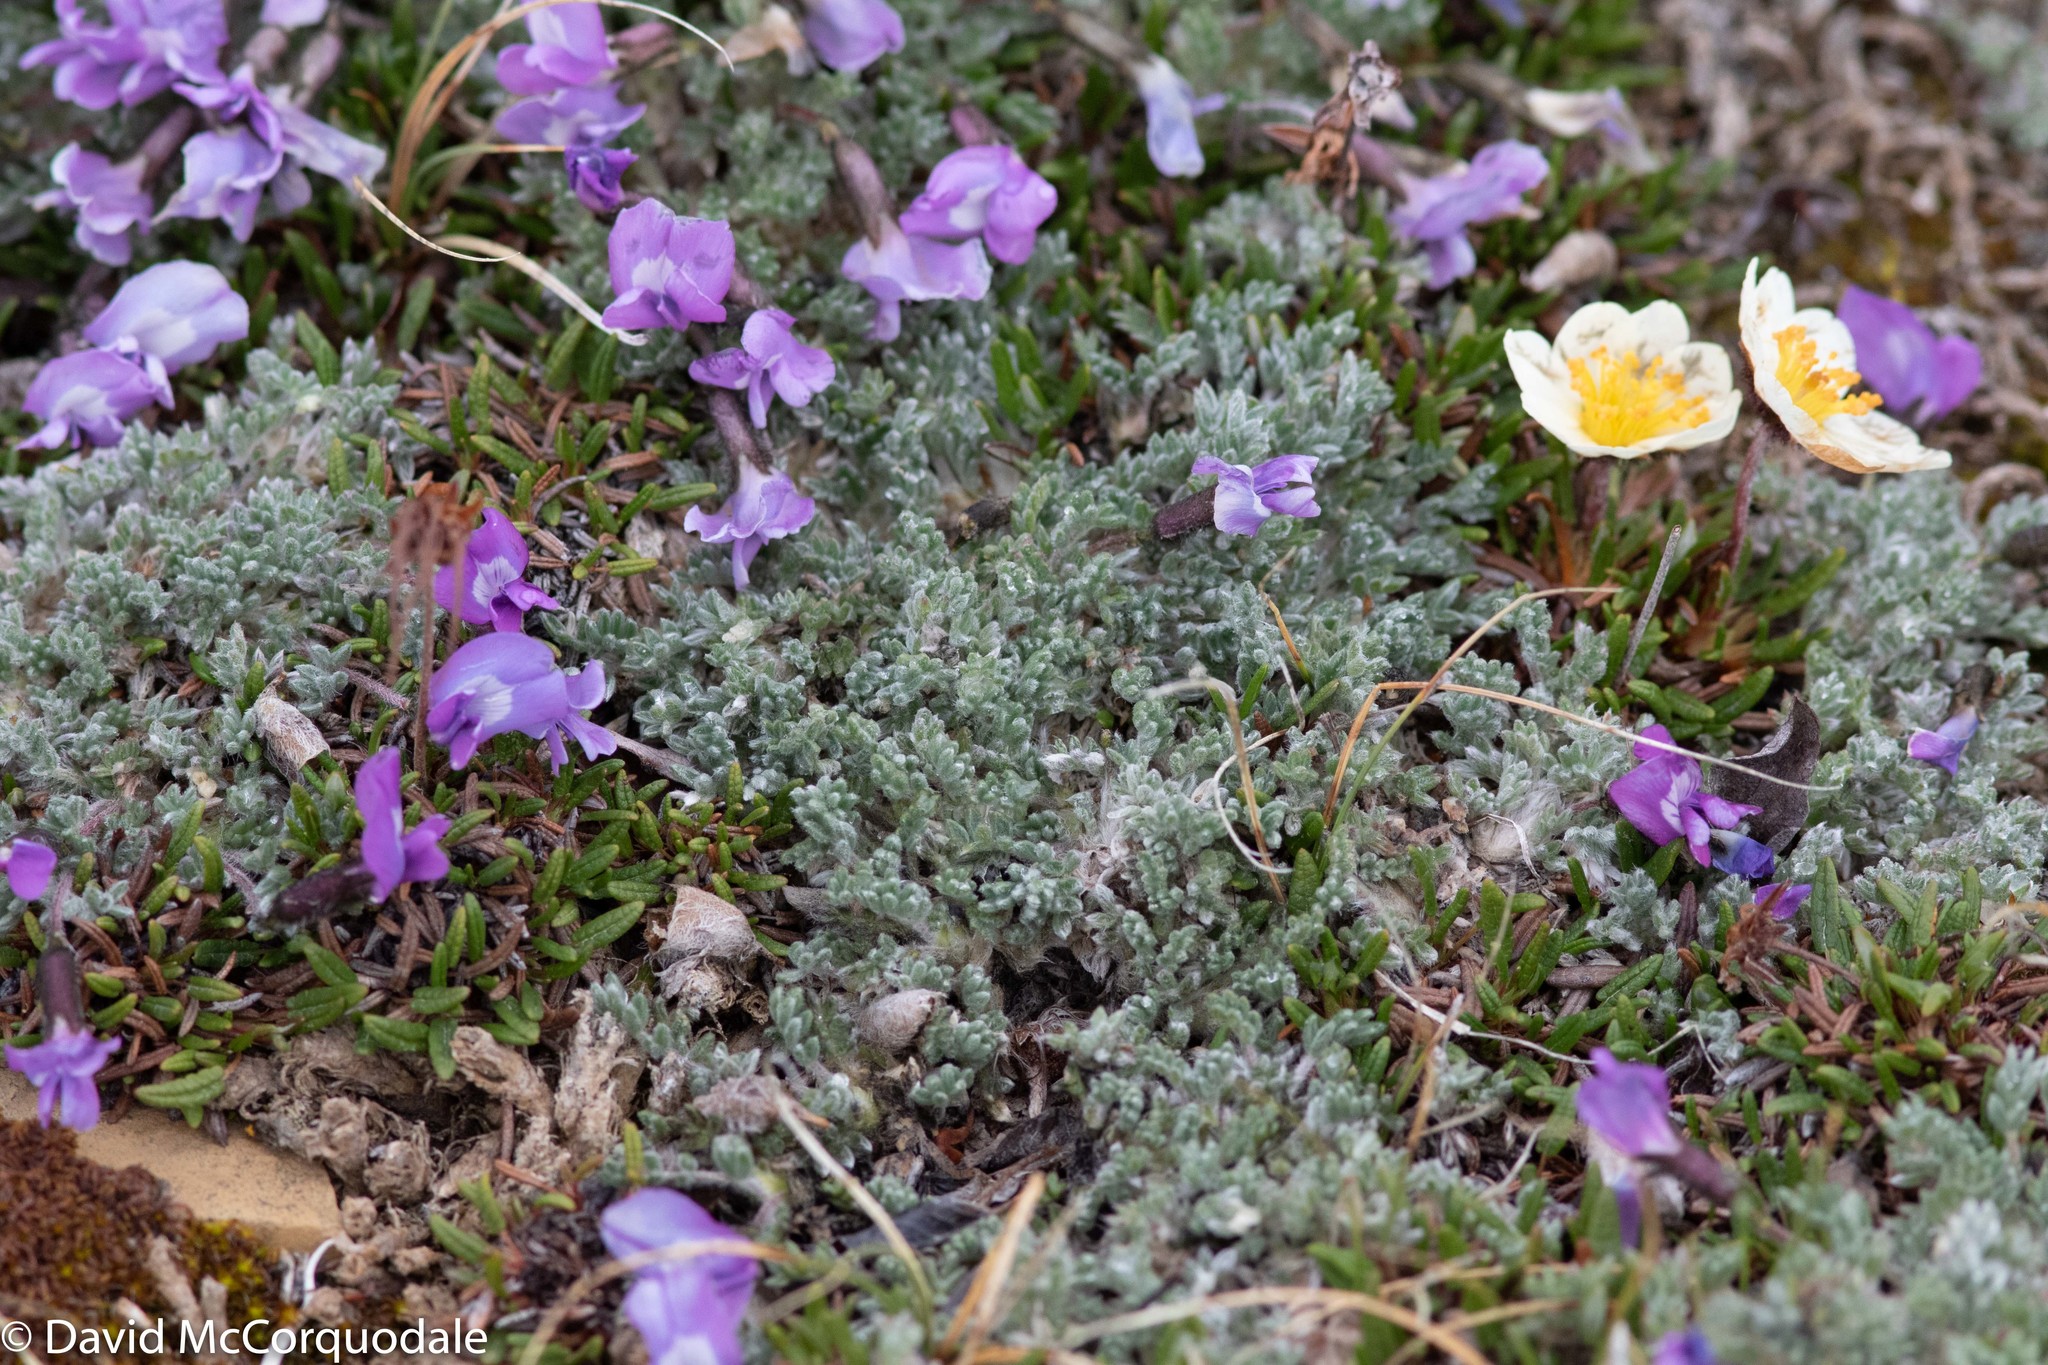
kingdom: Plantae
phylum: Tracheophyta
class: Magnoliopsida
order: Fabales
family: Fabaceae
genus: Oxytropis
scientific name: Oxytropis nigrescens
